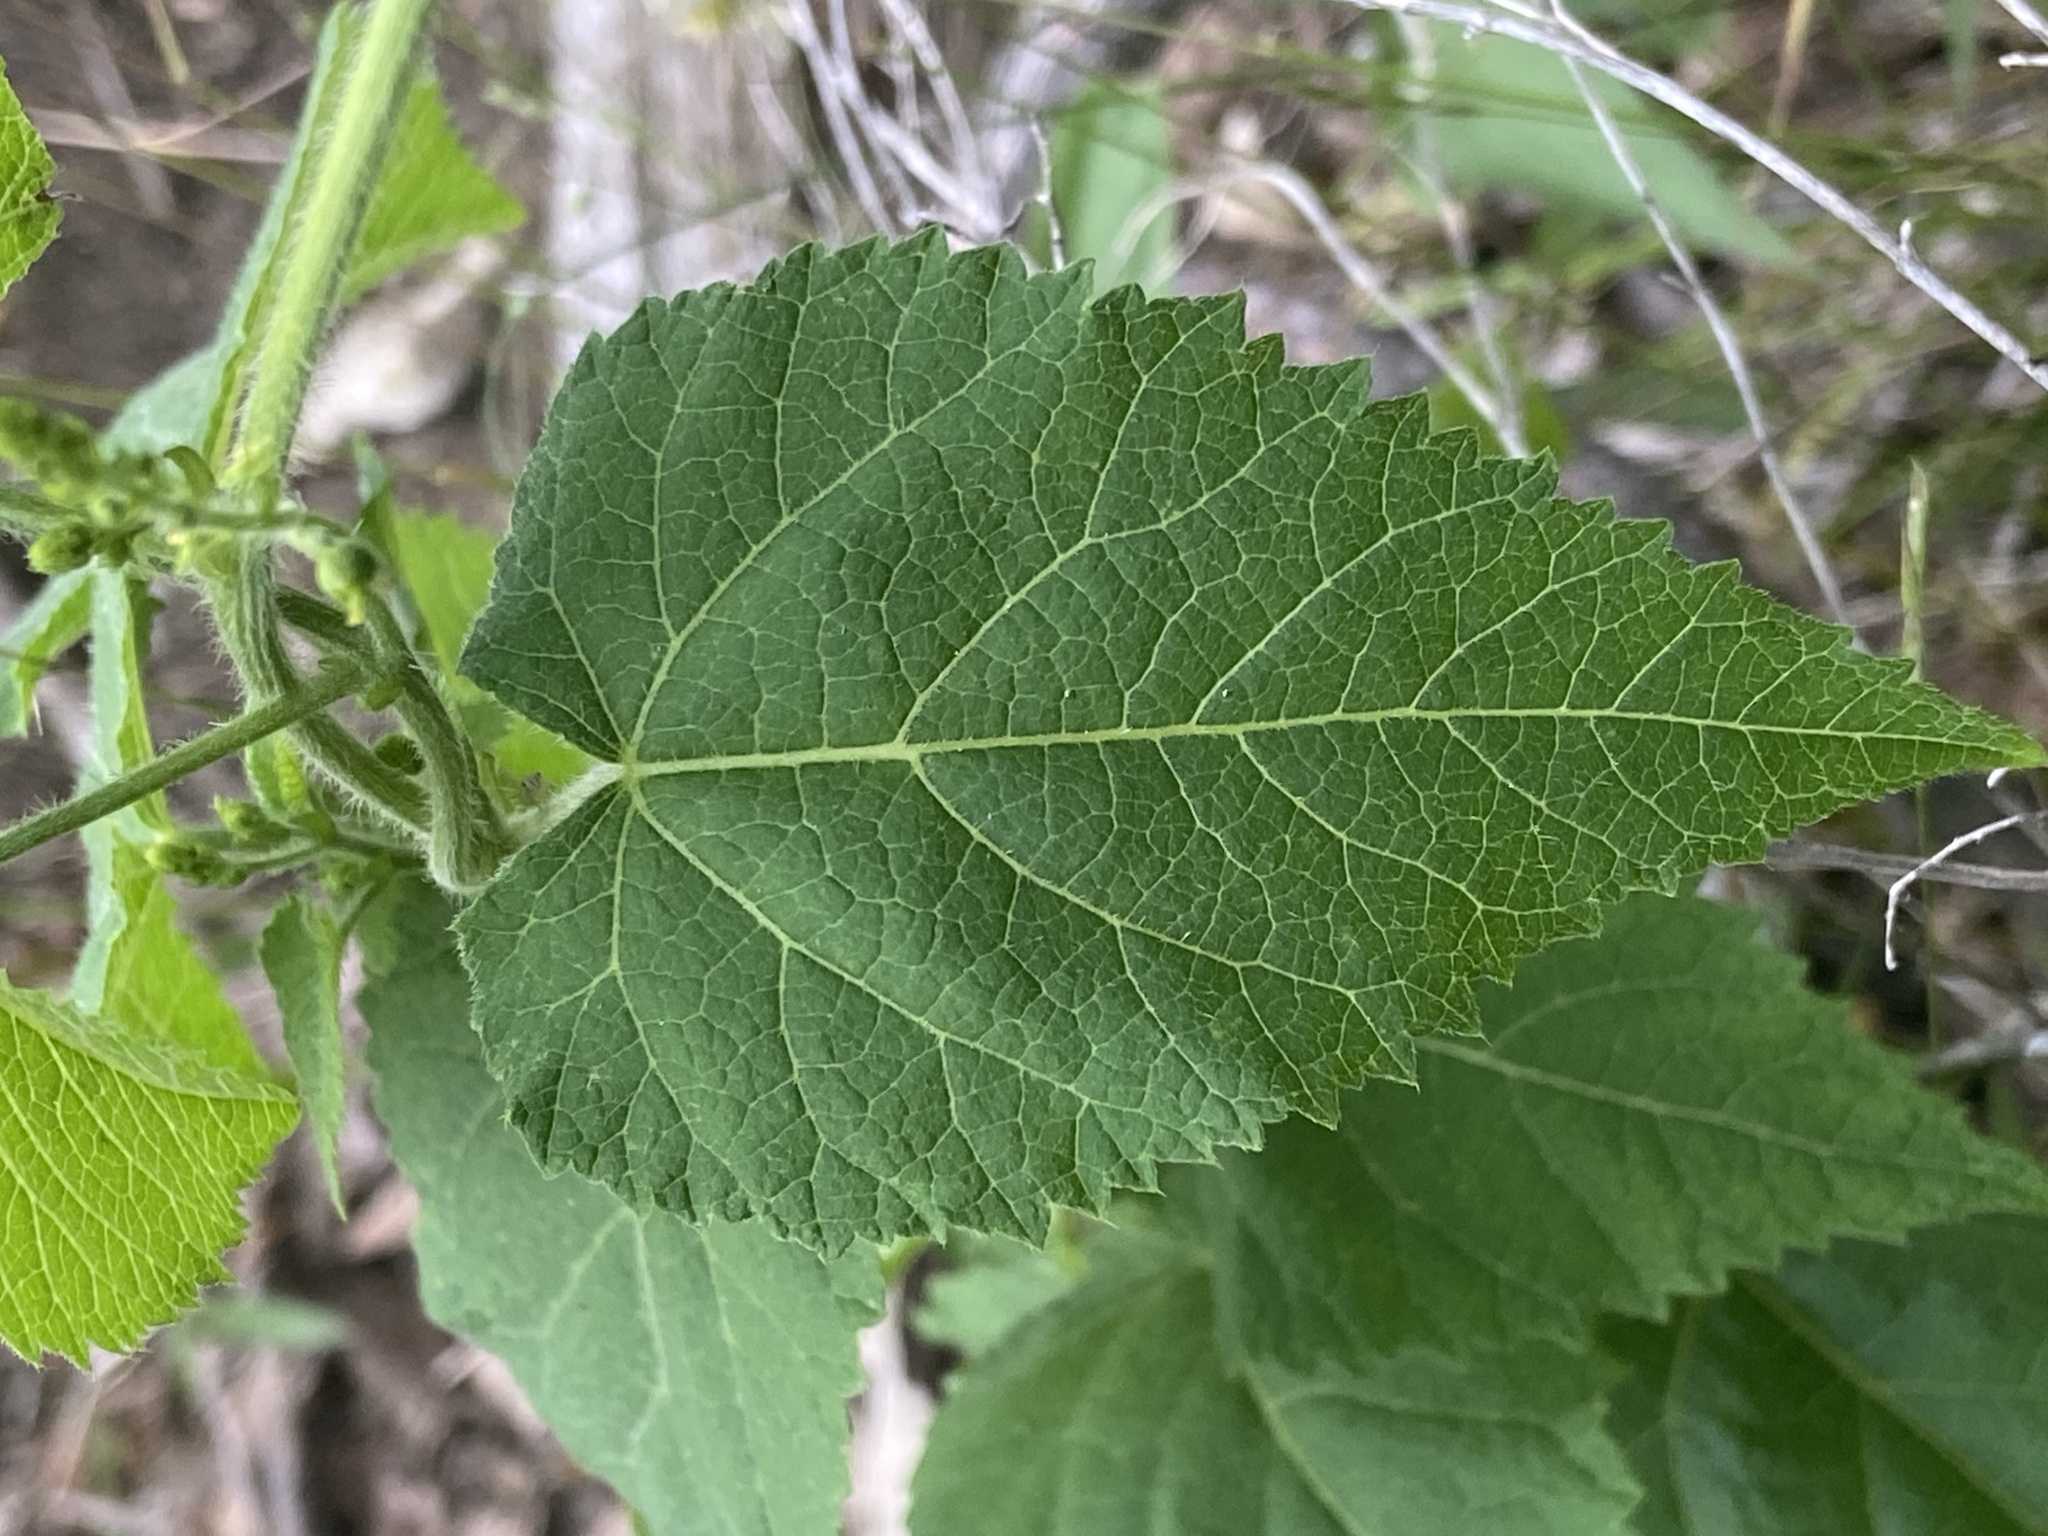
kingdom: Plantae
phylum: Tracheophyta
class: Magnoliopsida
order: Malpighiales
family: Euphorbiaceae
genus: Tragia
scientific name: Tragia cordata
